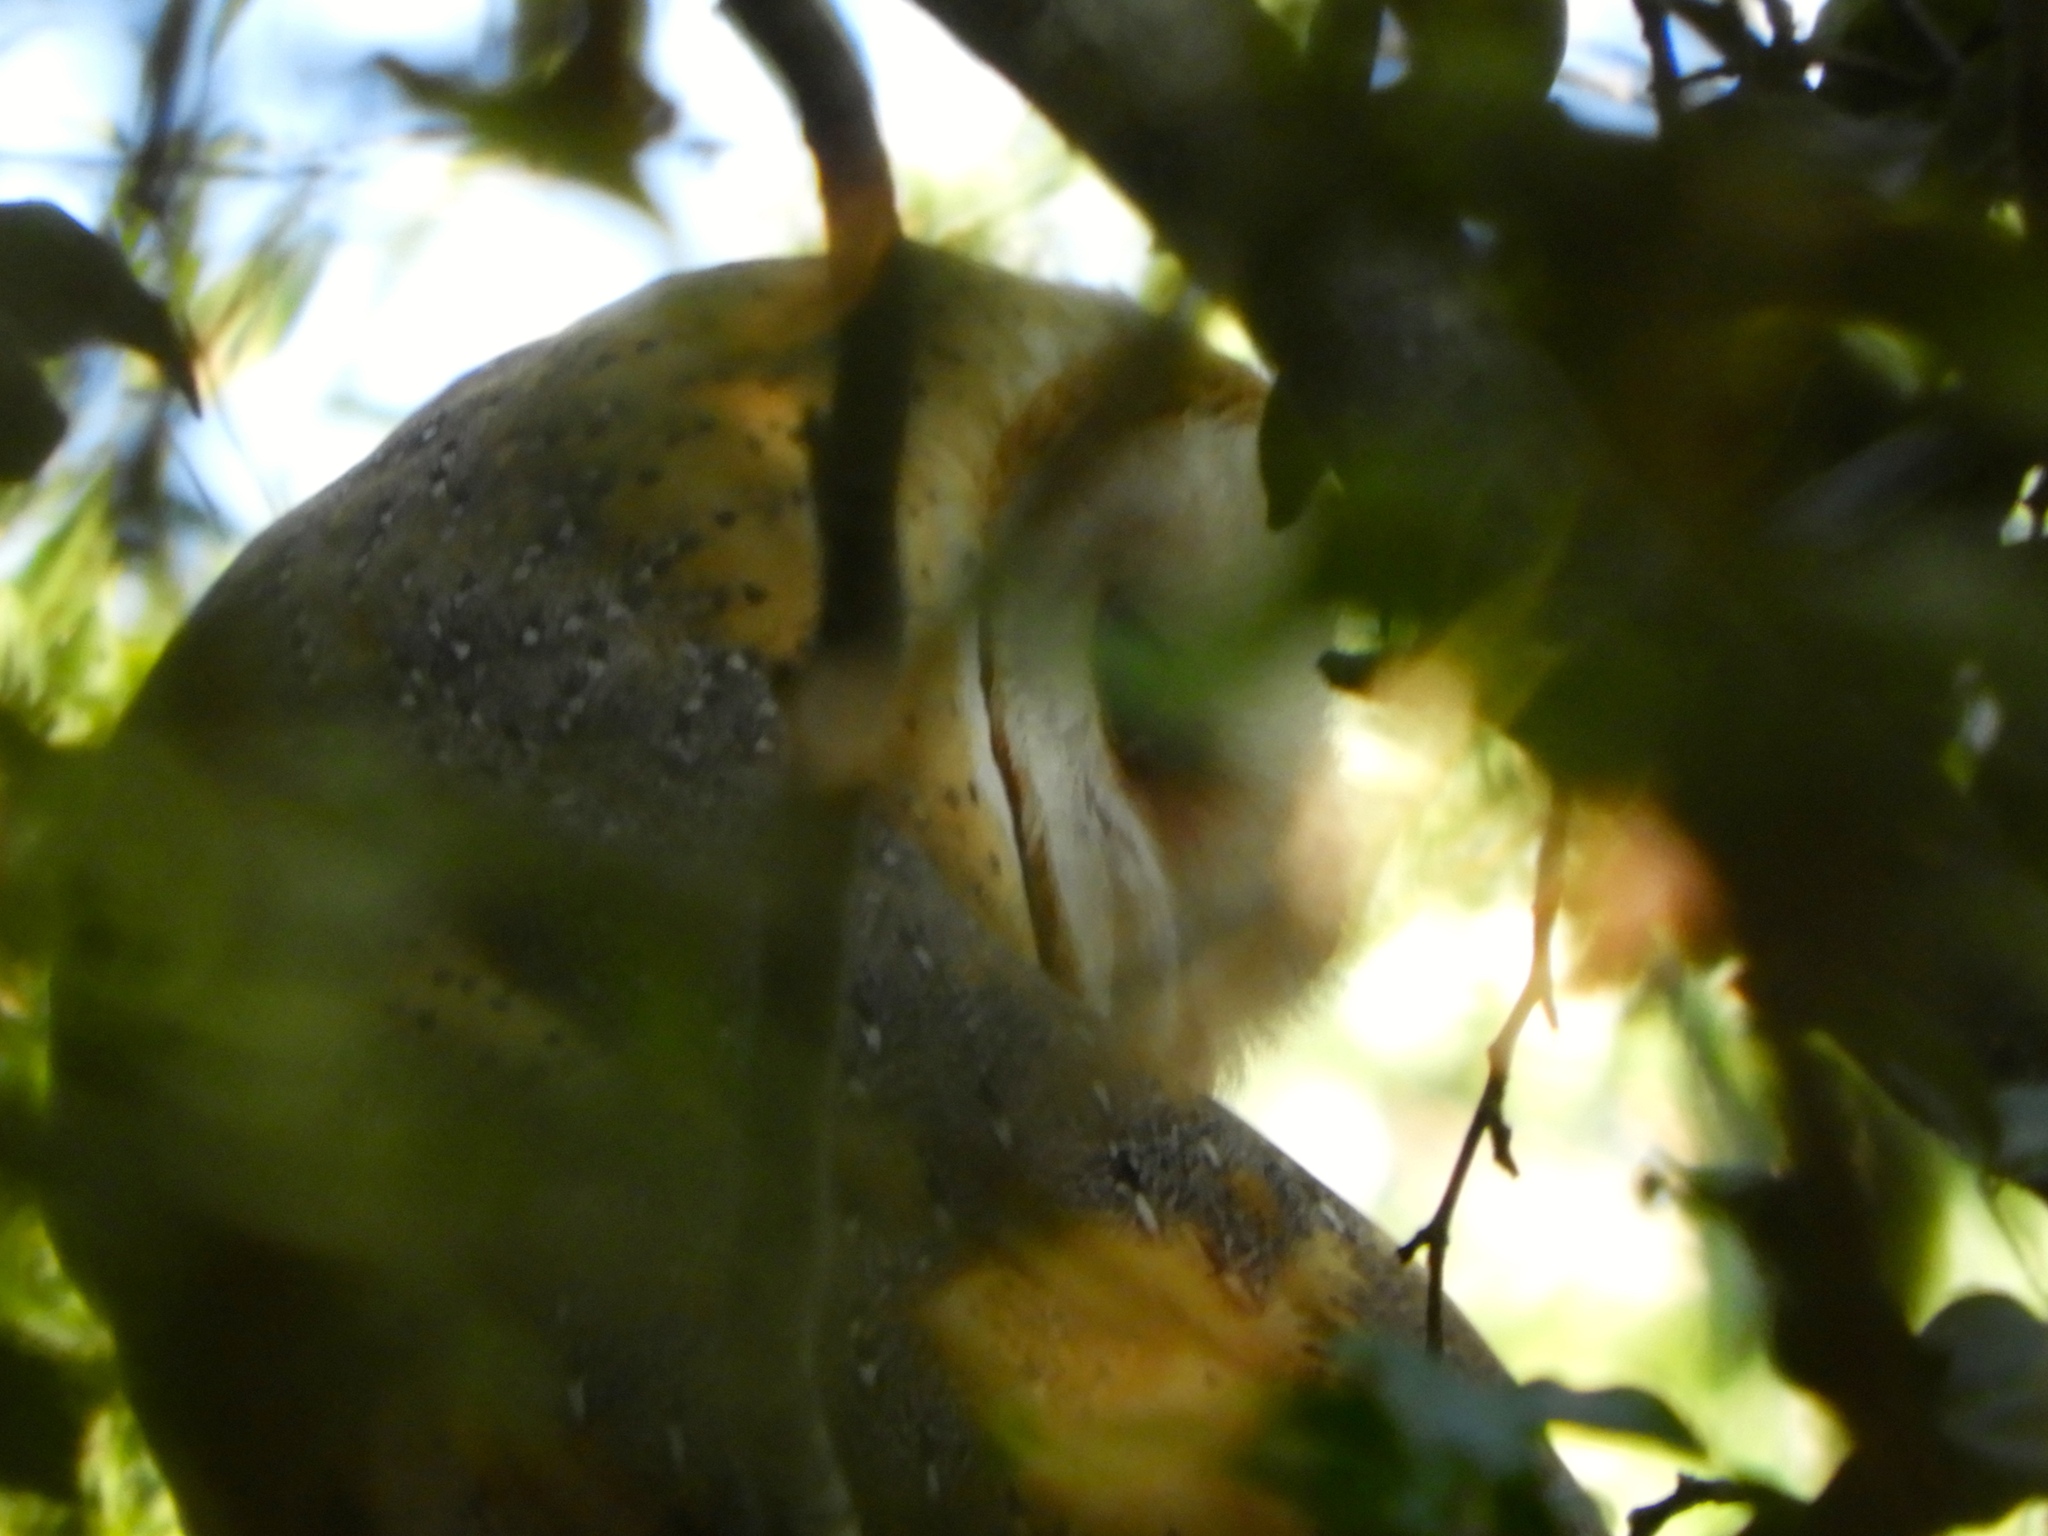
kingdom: Animalia
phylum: Chordata
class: Aves
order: Strigiformes
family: Tytonidae
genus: Tyto
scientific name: Tyto alba
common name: Barn owl
